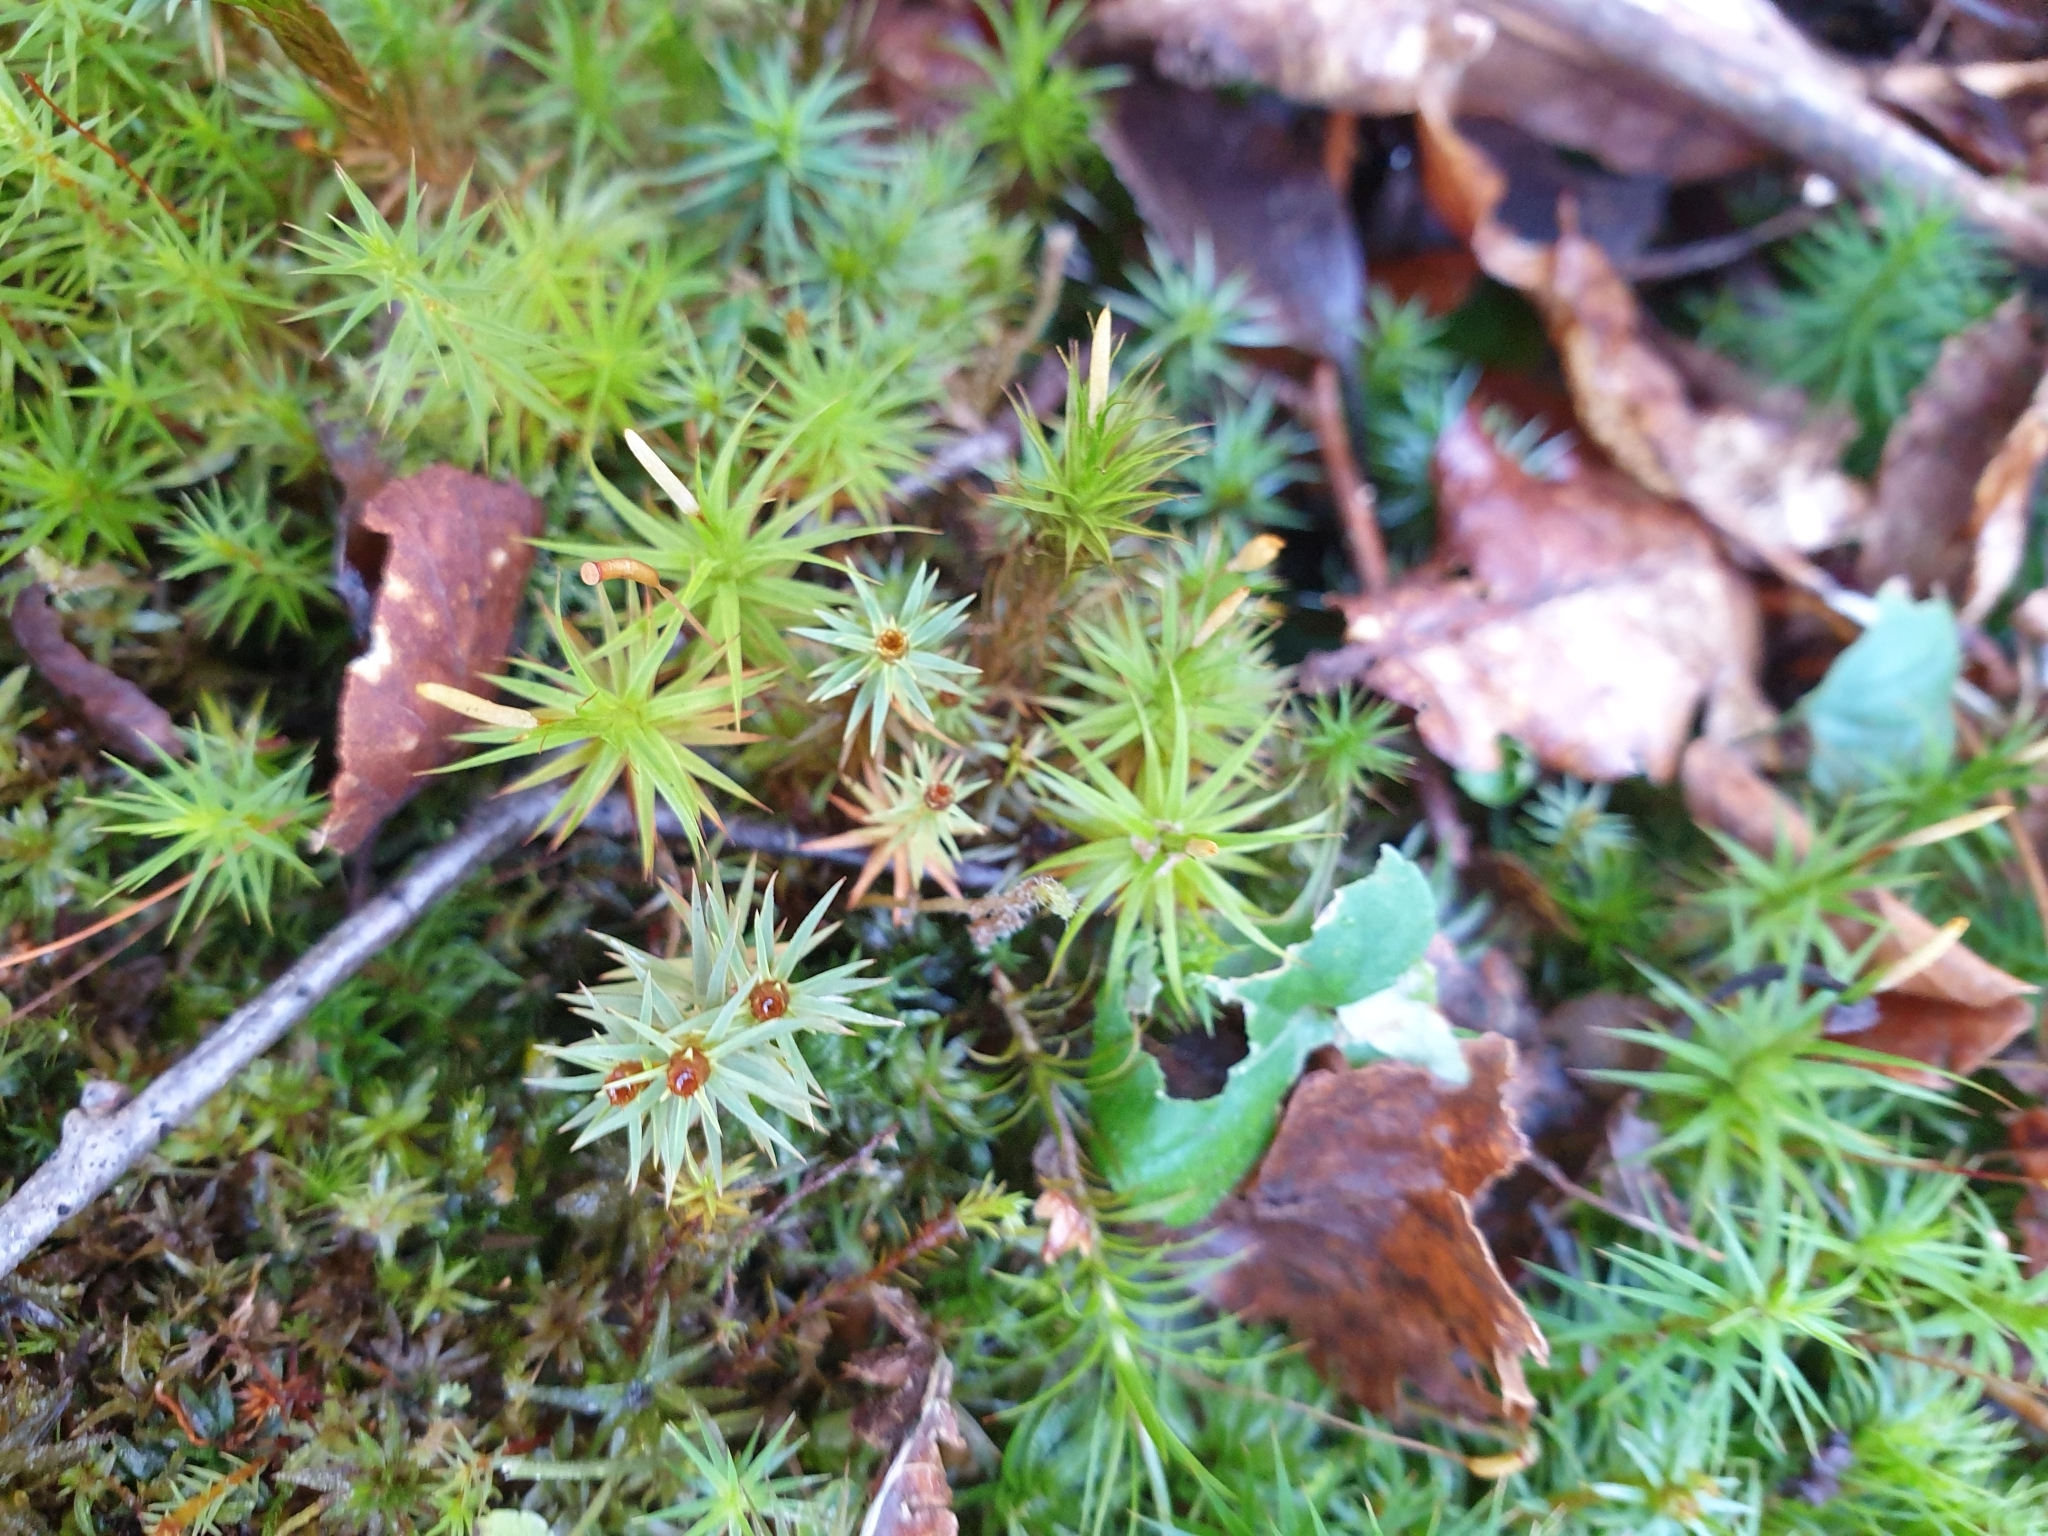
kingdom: Plantae
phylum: Bryophyta
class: Polytrichopsida
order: Polytrichales
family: Polytrichaceae
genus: Polytrichum
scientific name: Polytrichum juniperinum
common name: Juniper haircap moss
